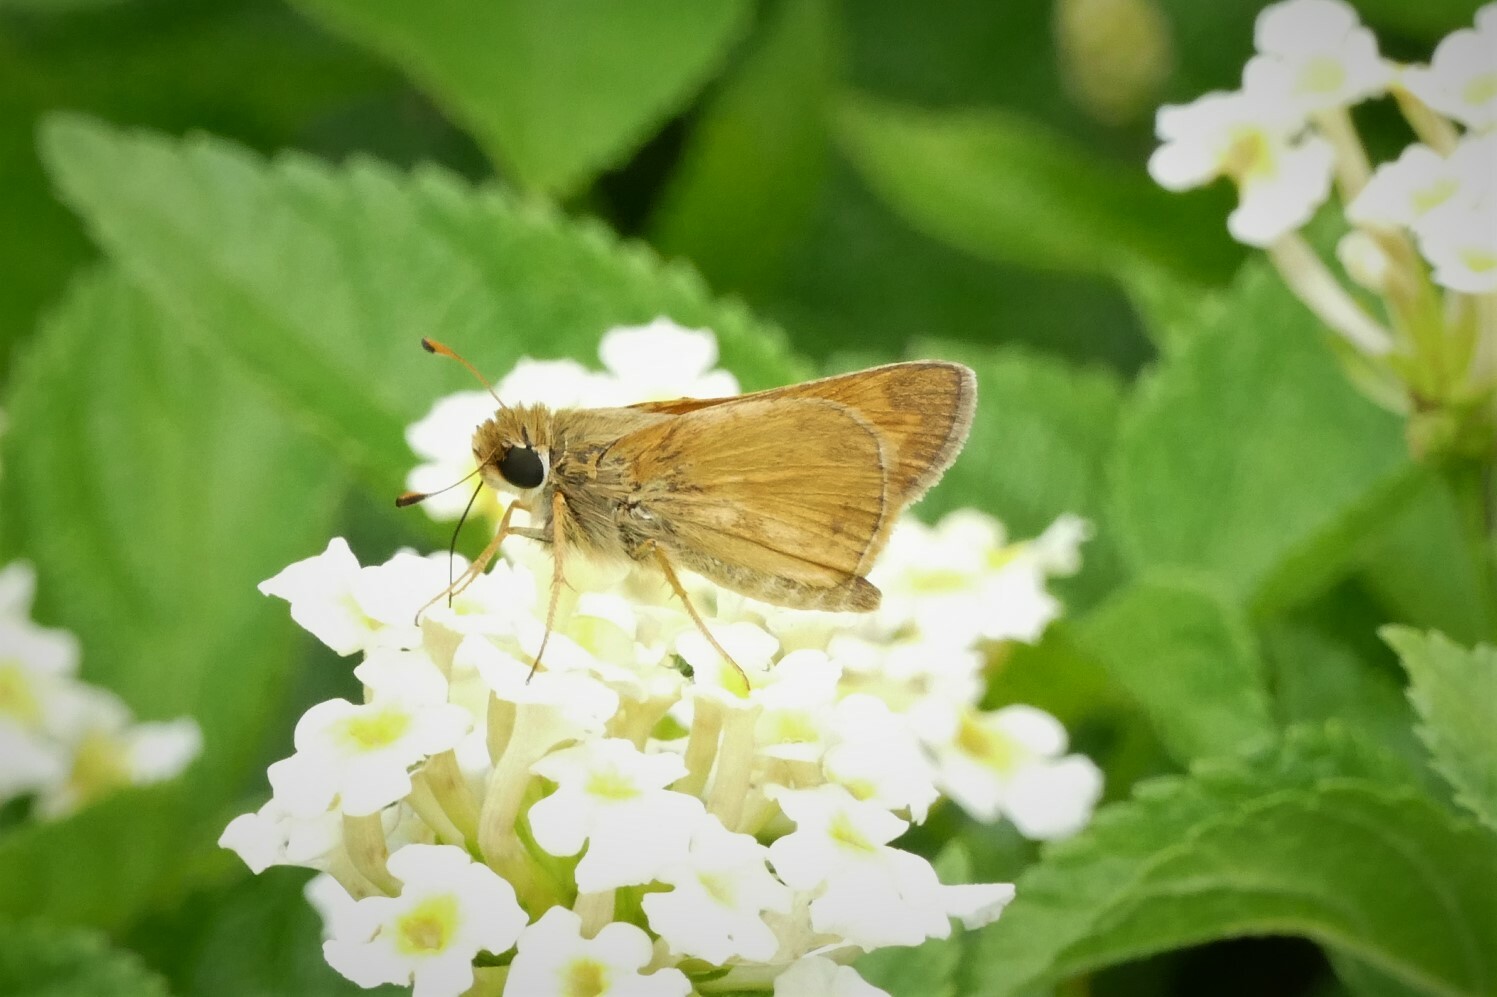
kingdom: Animalia
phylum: Arthropoda
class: Insecta
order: Lepidoptera
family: Hesperiidae
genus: Atalopedes
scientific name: Atalopedes
